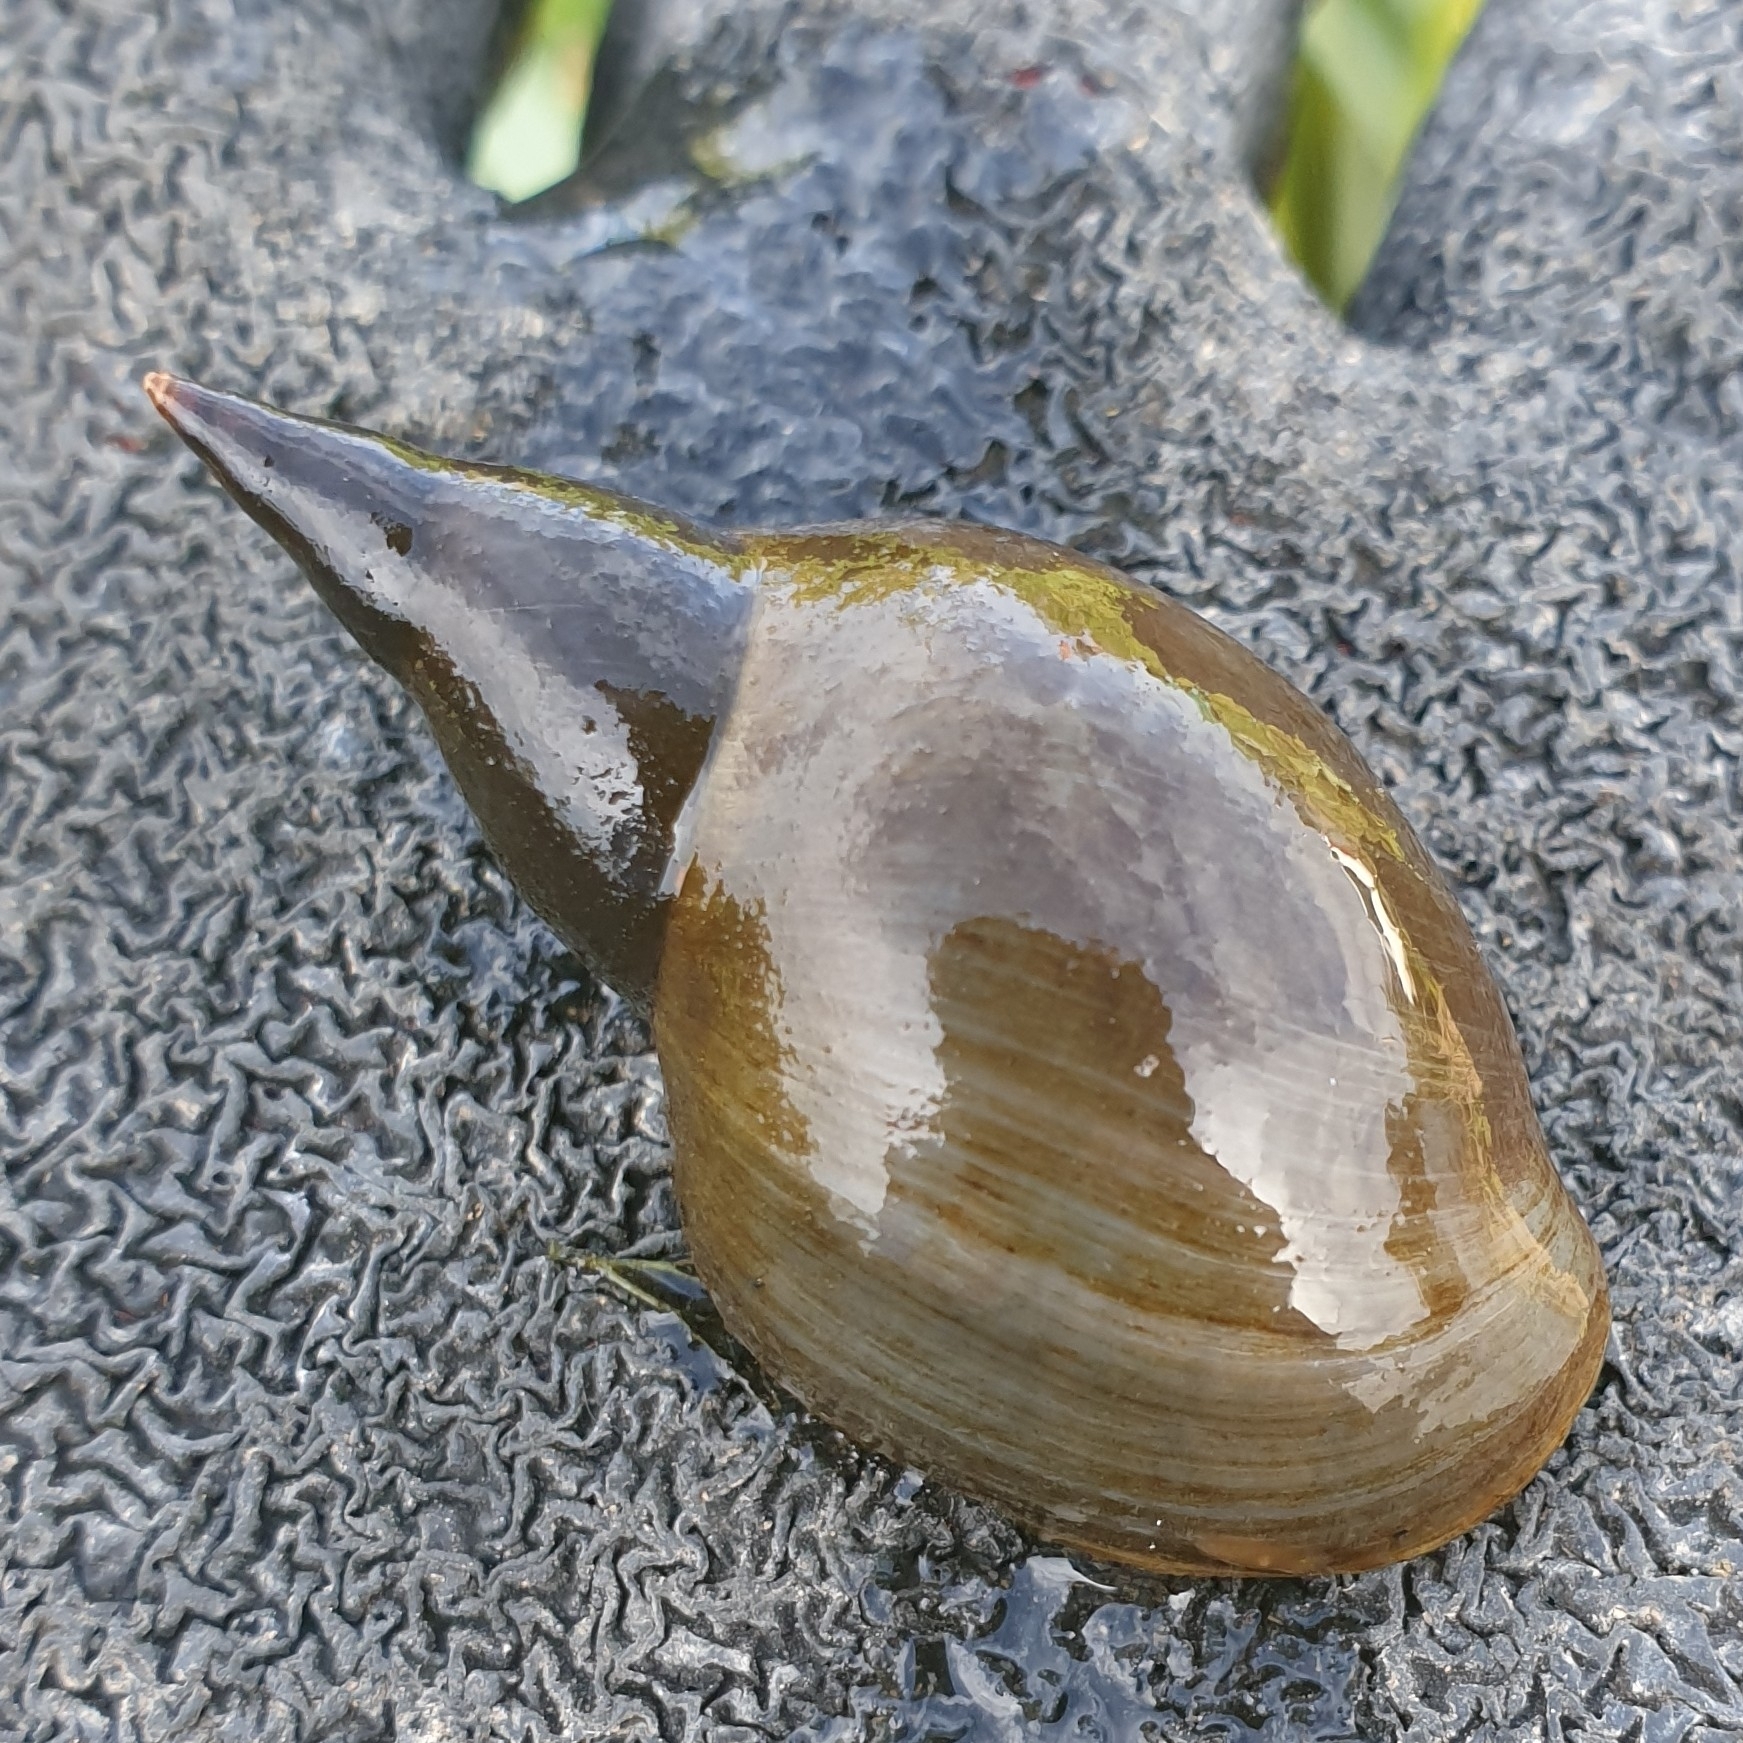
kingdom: Animalia
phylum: Mollusca
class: Gastropoda
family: Lymnaeidae
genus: Lymnaea
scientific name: Lymnaea stagnalis
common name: Great pond snail
